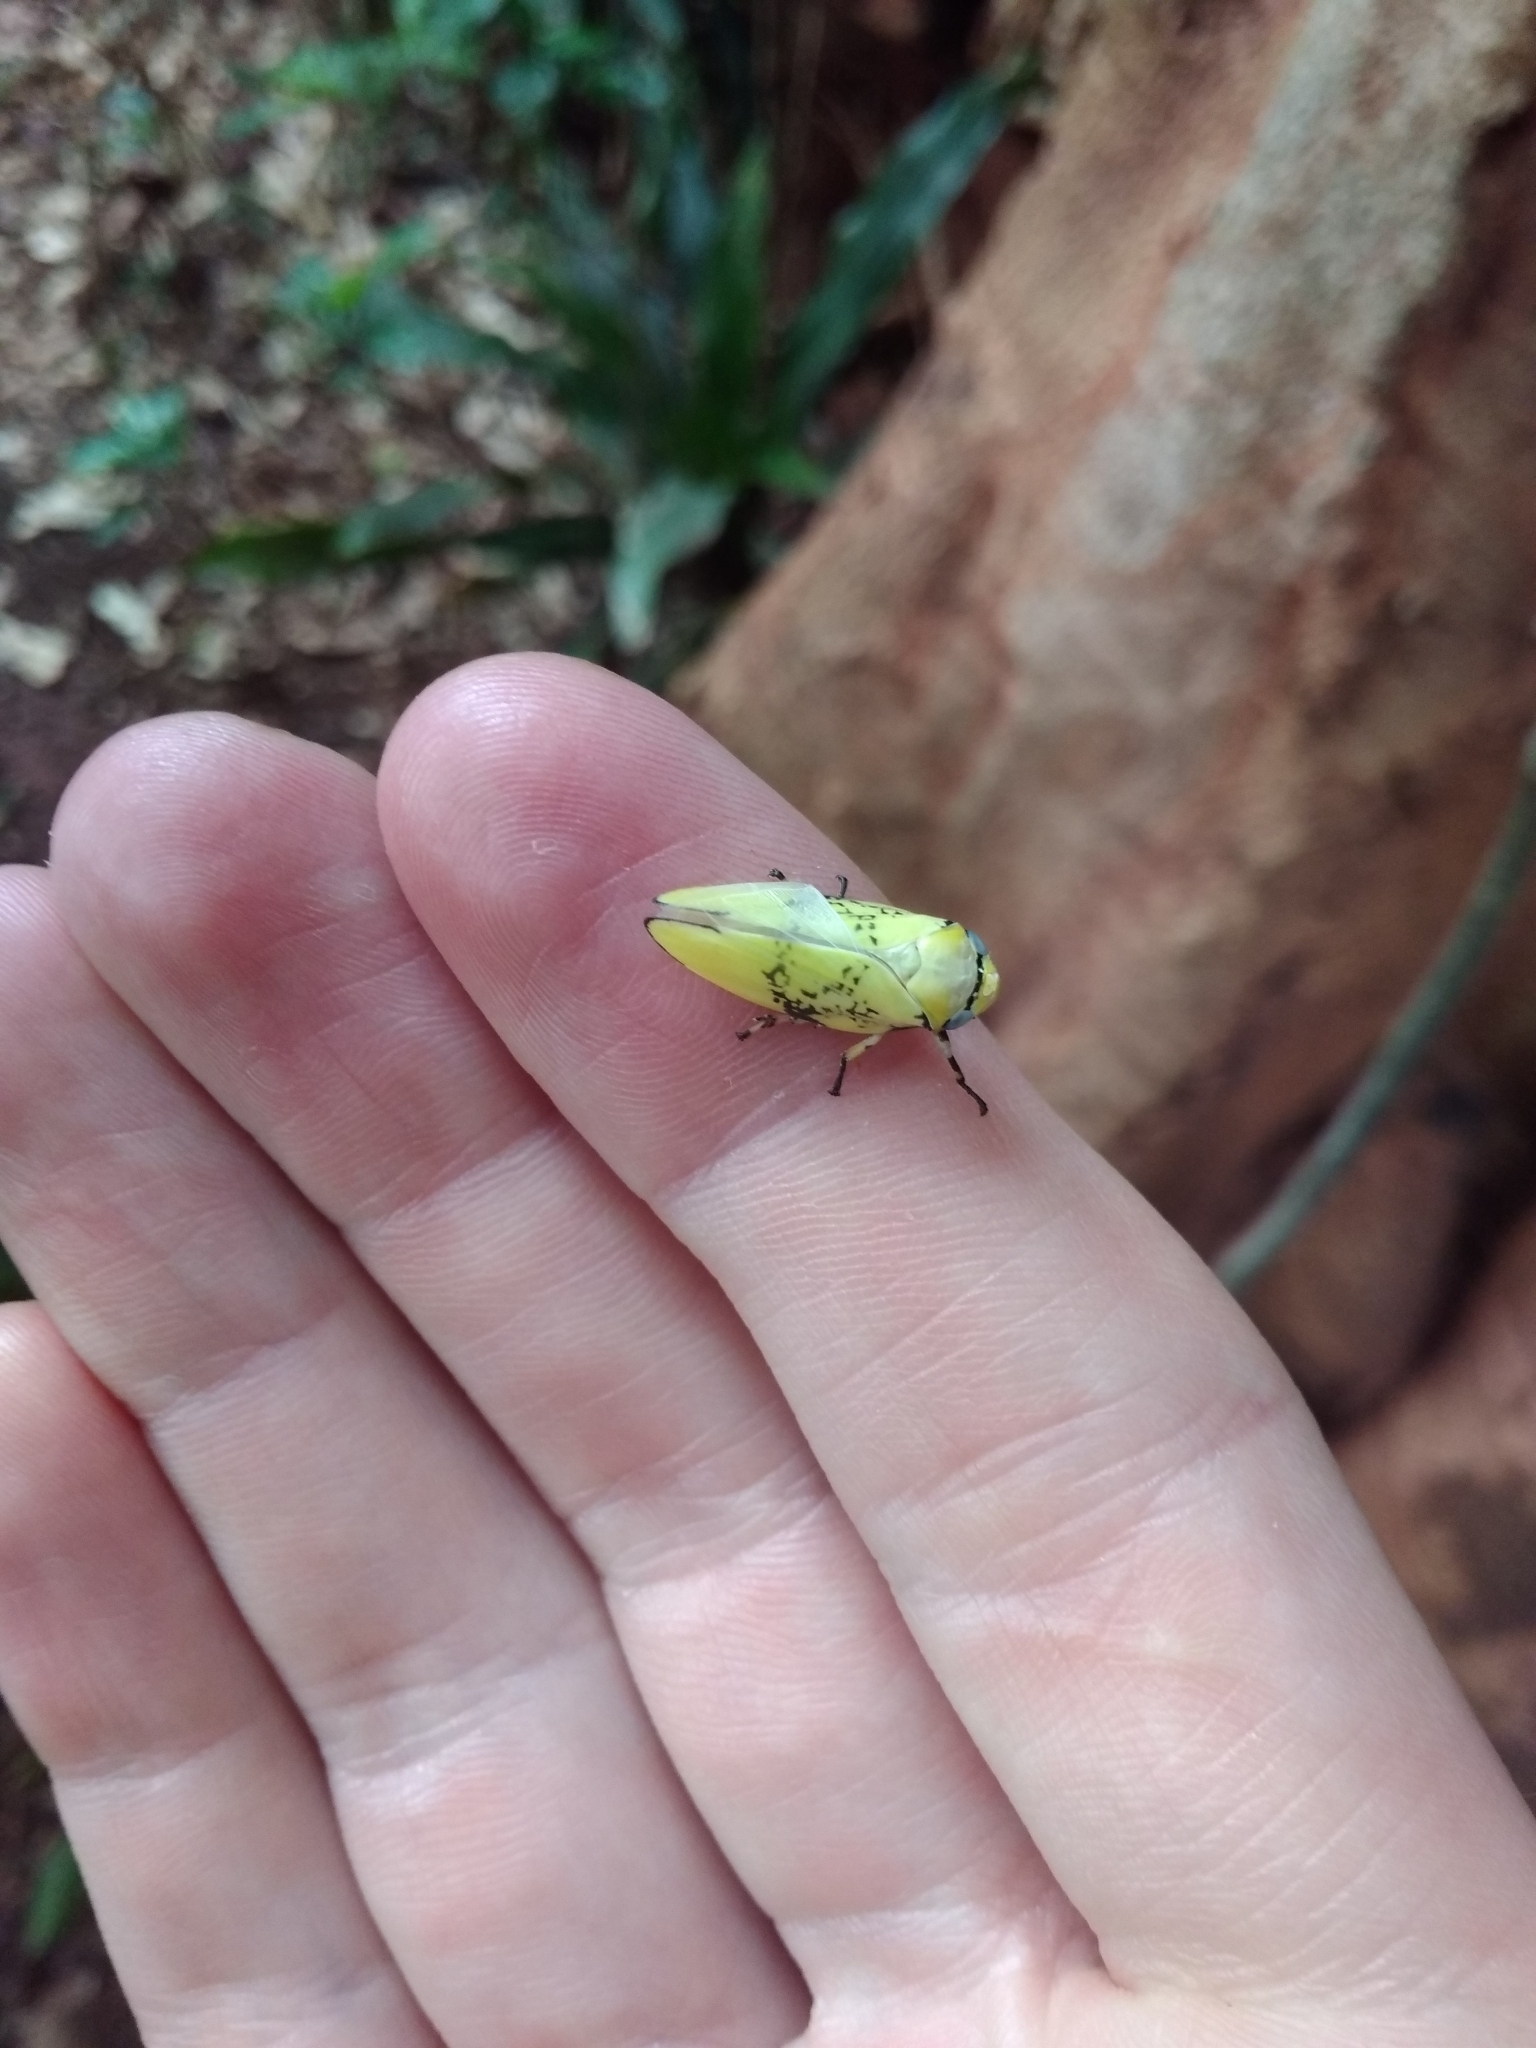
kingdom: Animalia
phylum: Arthropoda
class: Insecta
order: Hemiptera
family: Aphrophoridae
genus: Ptyelus
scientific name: Ptyelus flavescens
